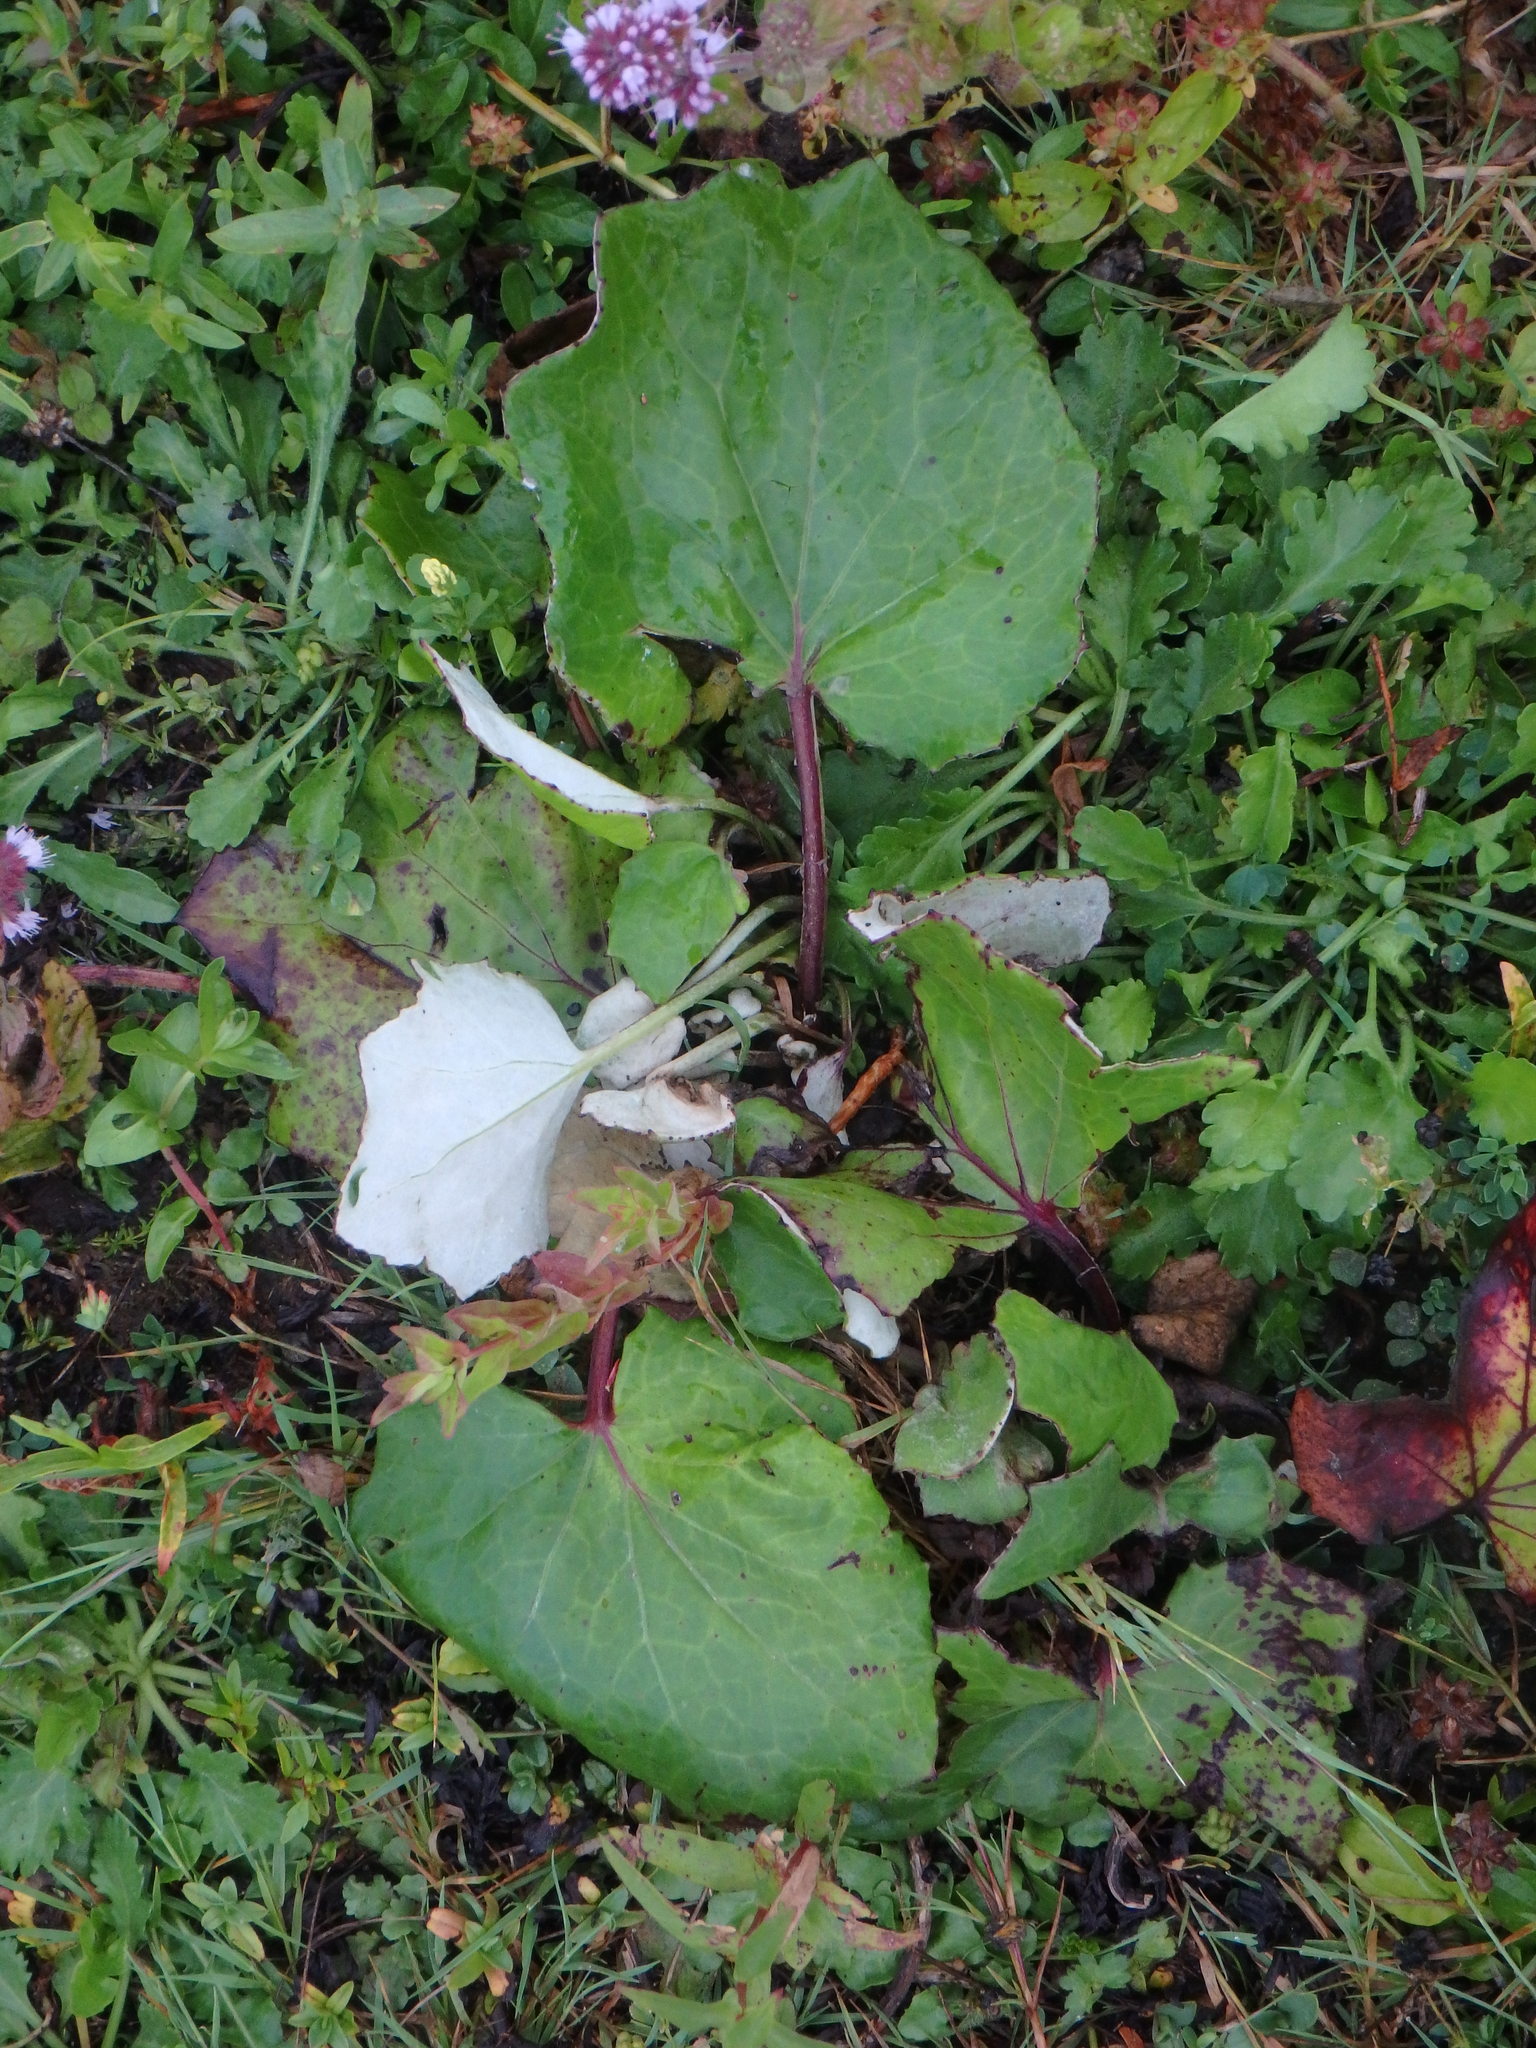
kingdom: Plantae
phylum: Tracheophyta
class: Magnoliopsida
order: Asterales
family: Asteraceae
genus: Tussilago
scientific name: Tussilago farfara
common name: Coltsfoot
